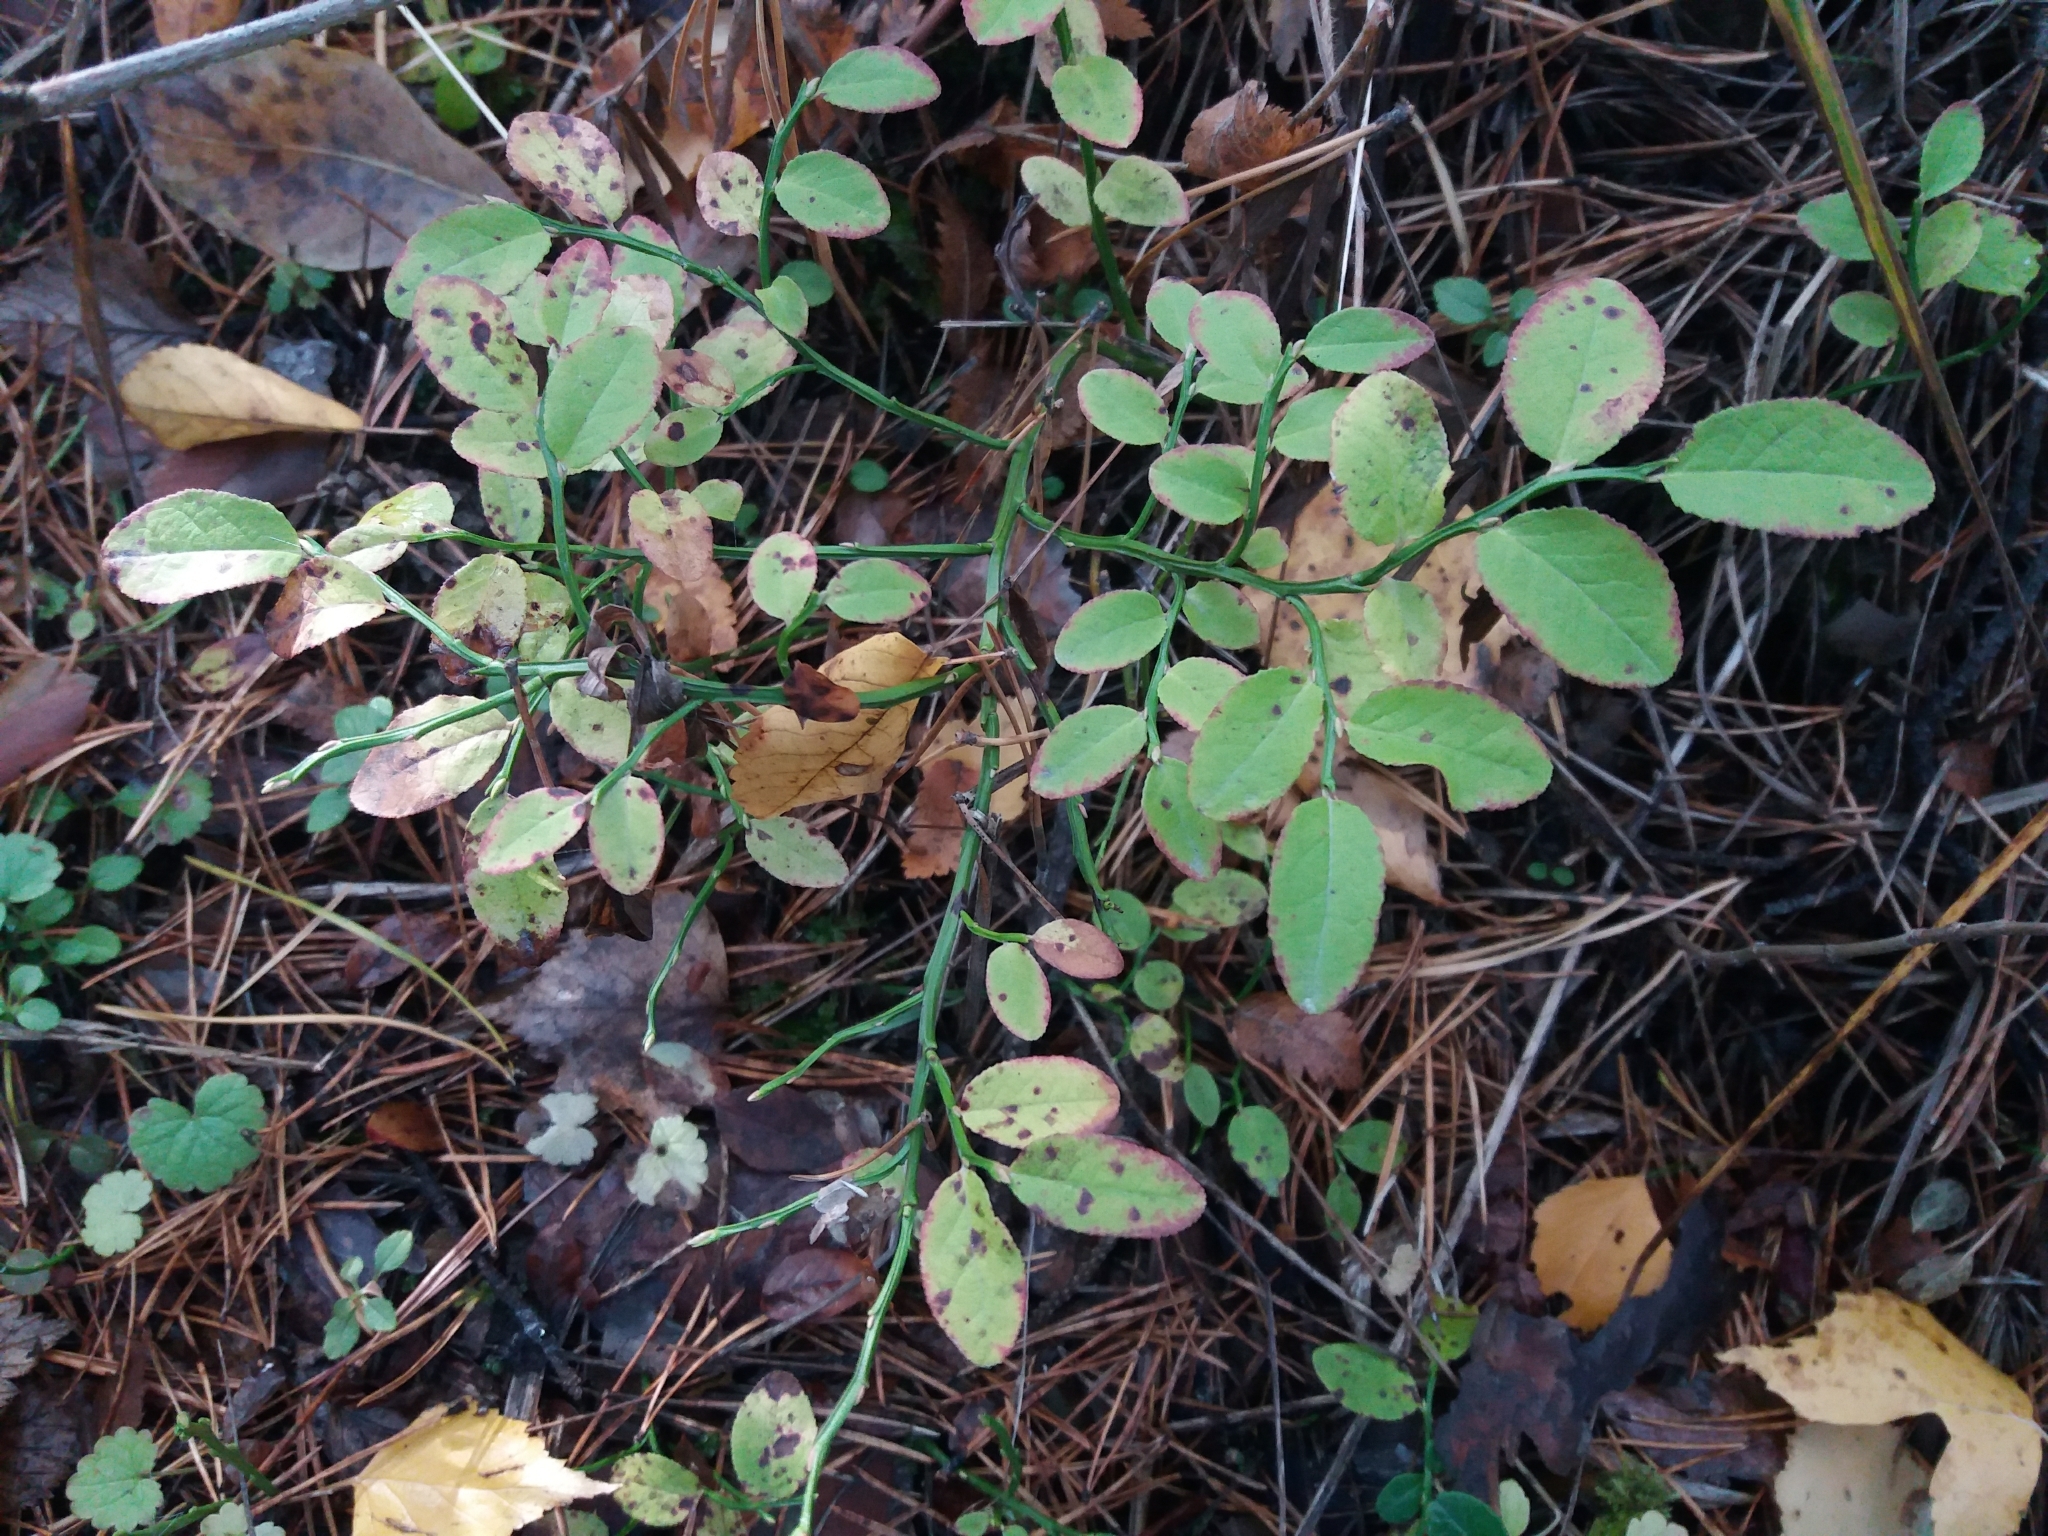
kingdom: Plantae
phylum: Tracheophyta
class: Magnoliopsida
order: Ericales
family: Ericaceae
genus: Vaccinium
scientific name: Vaccinium myrtillus
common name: Bilberry
